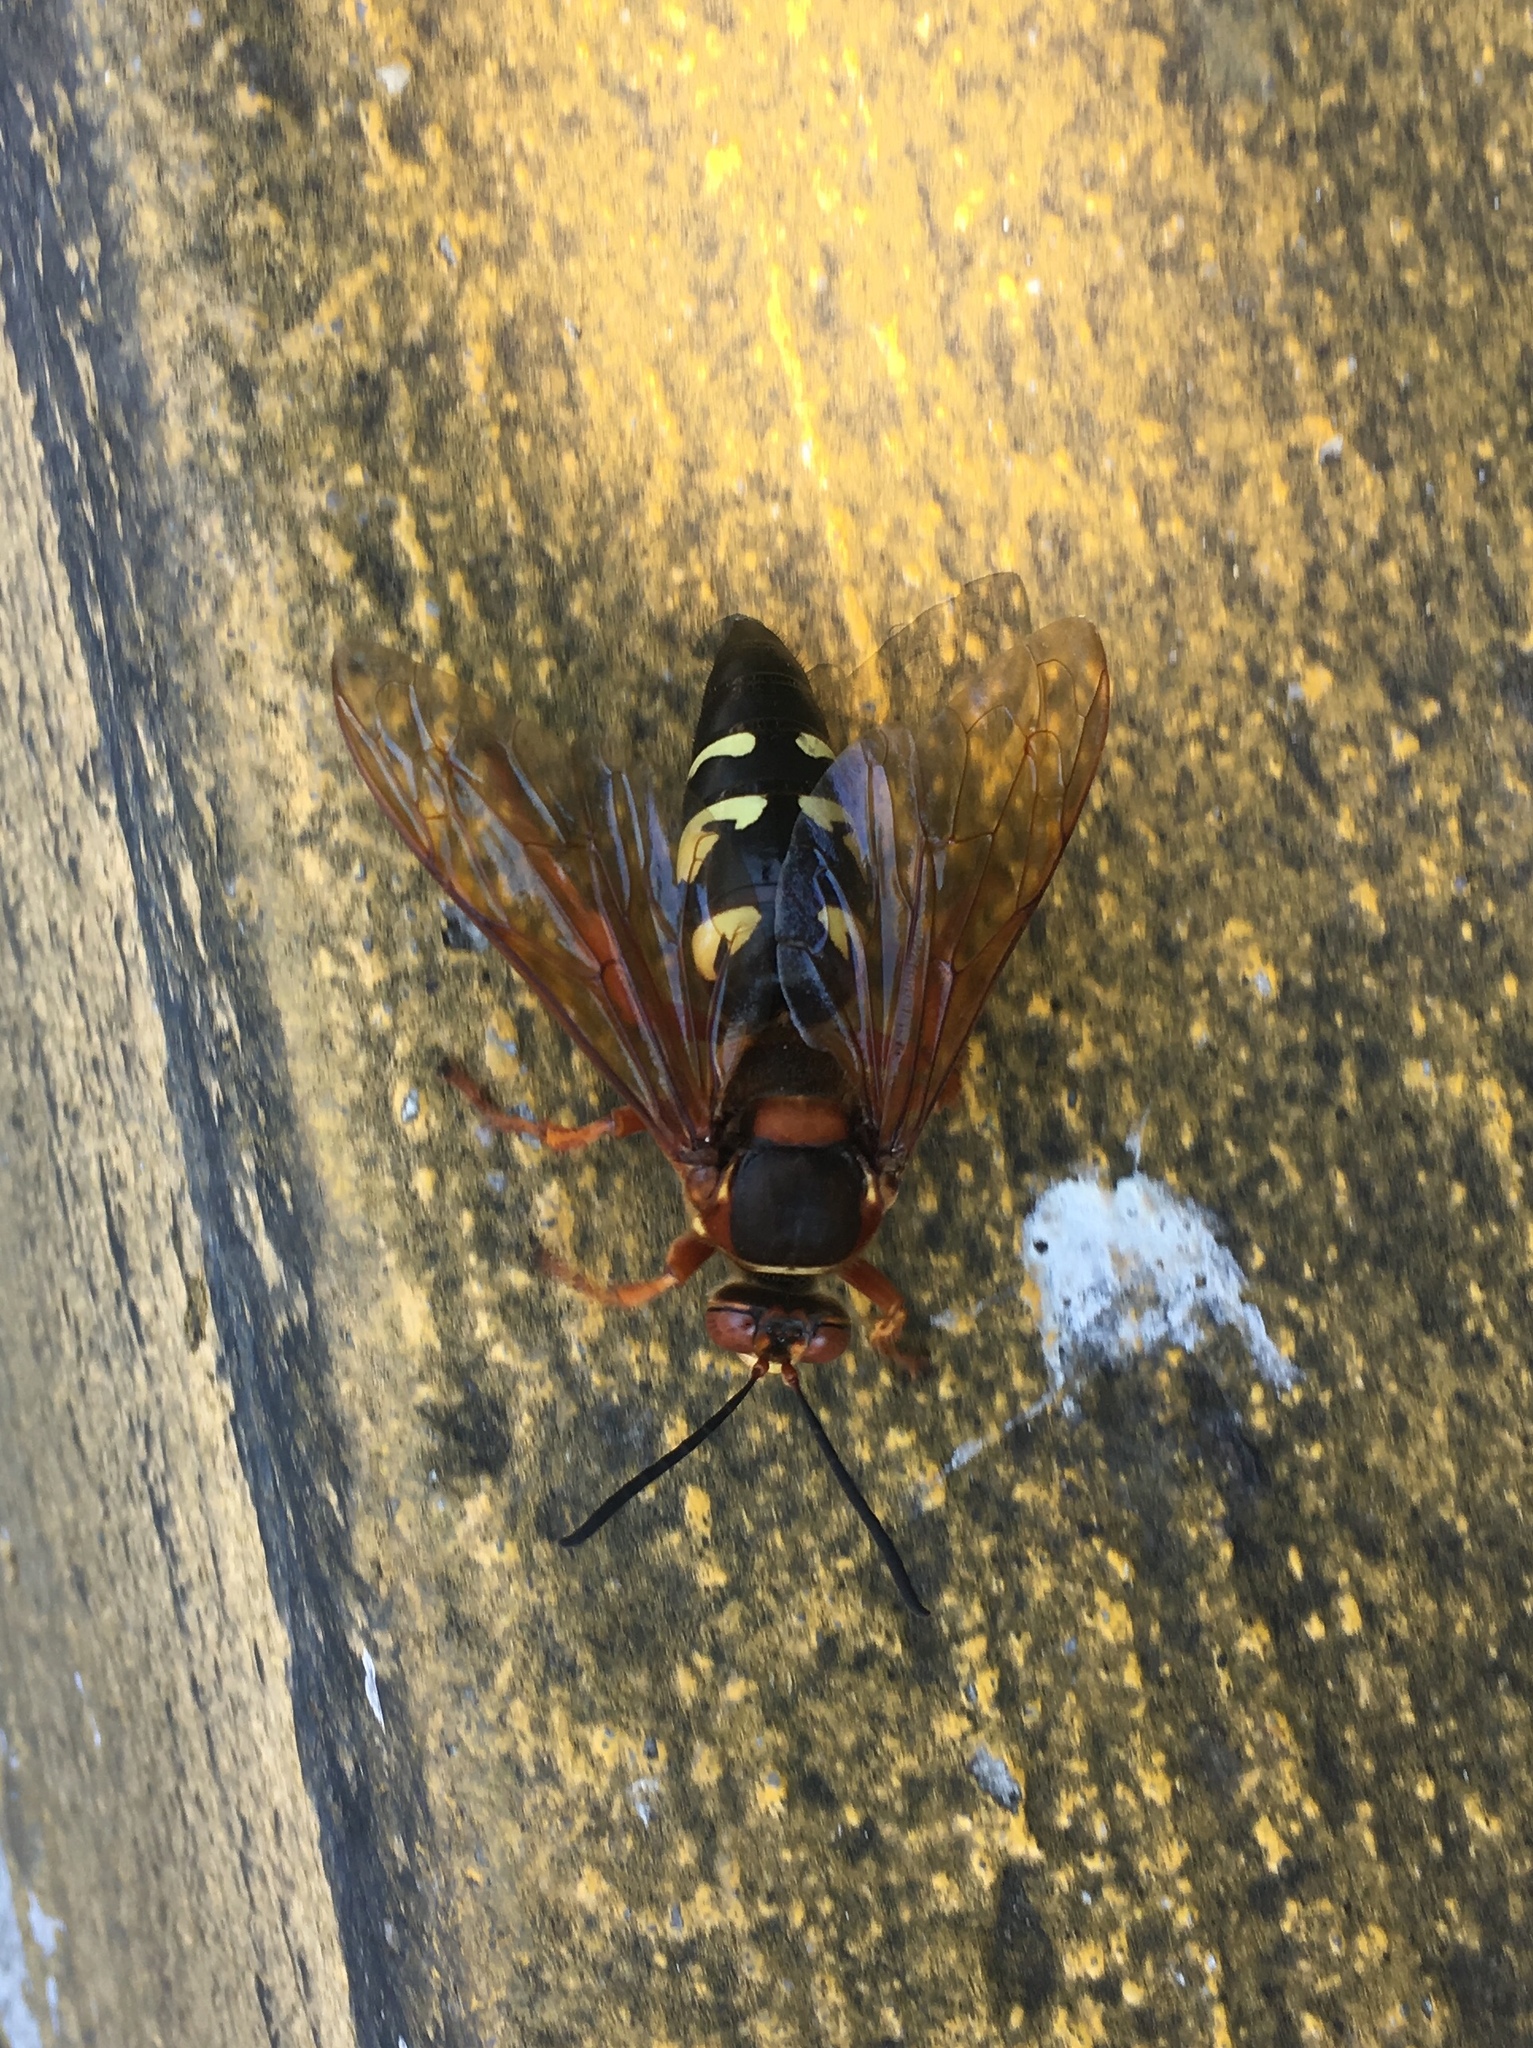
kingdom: Animalia
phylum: Arthropoda
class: Insecta
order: Hymenoptera
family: Crabronidae
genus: Sphecius
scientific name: Sphecius speciosus
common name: Cicada killer
